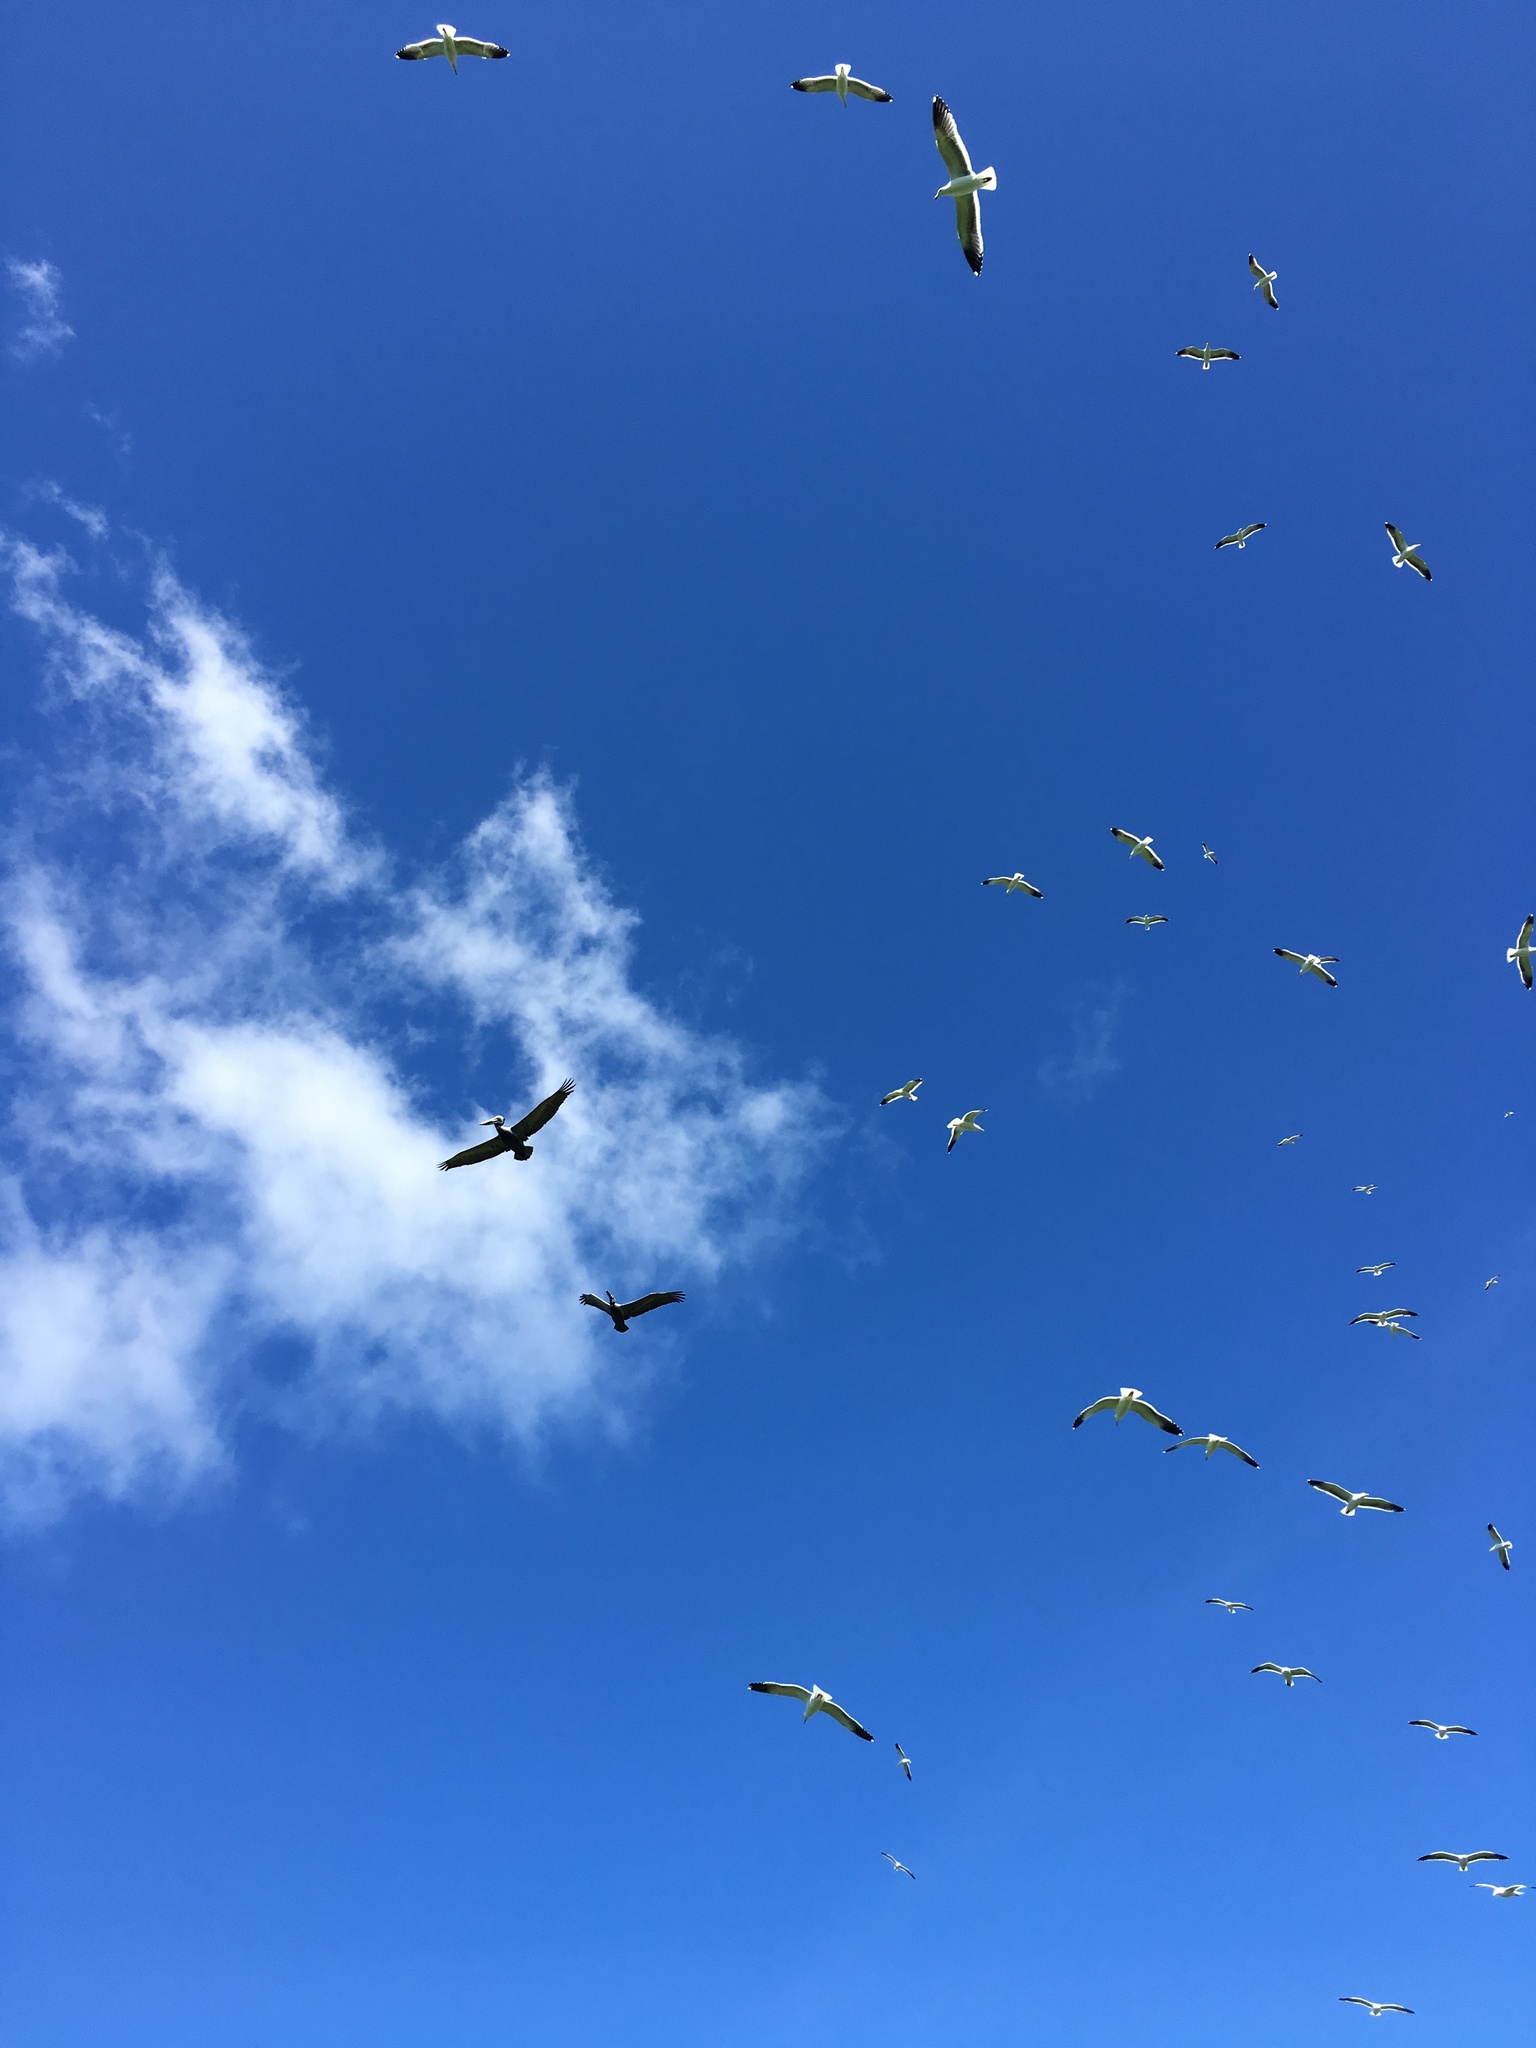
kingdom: Animalia
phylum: Chordata
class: Aves
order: Pelecaniformes
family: Pelecanidae
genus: Pelecanus
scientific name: Pelecanus occidentalis
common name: Brown pelican
